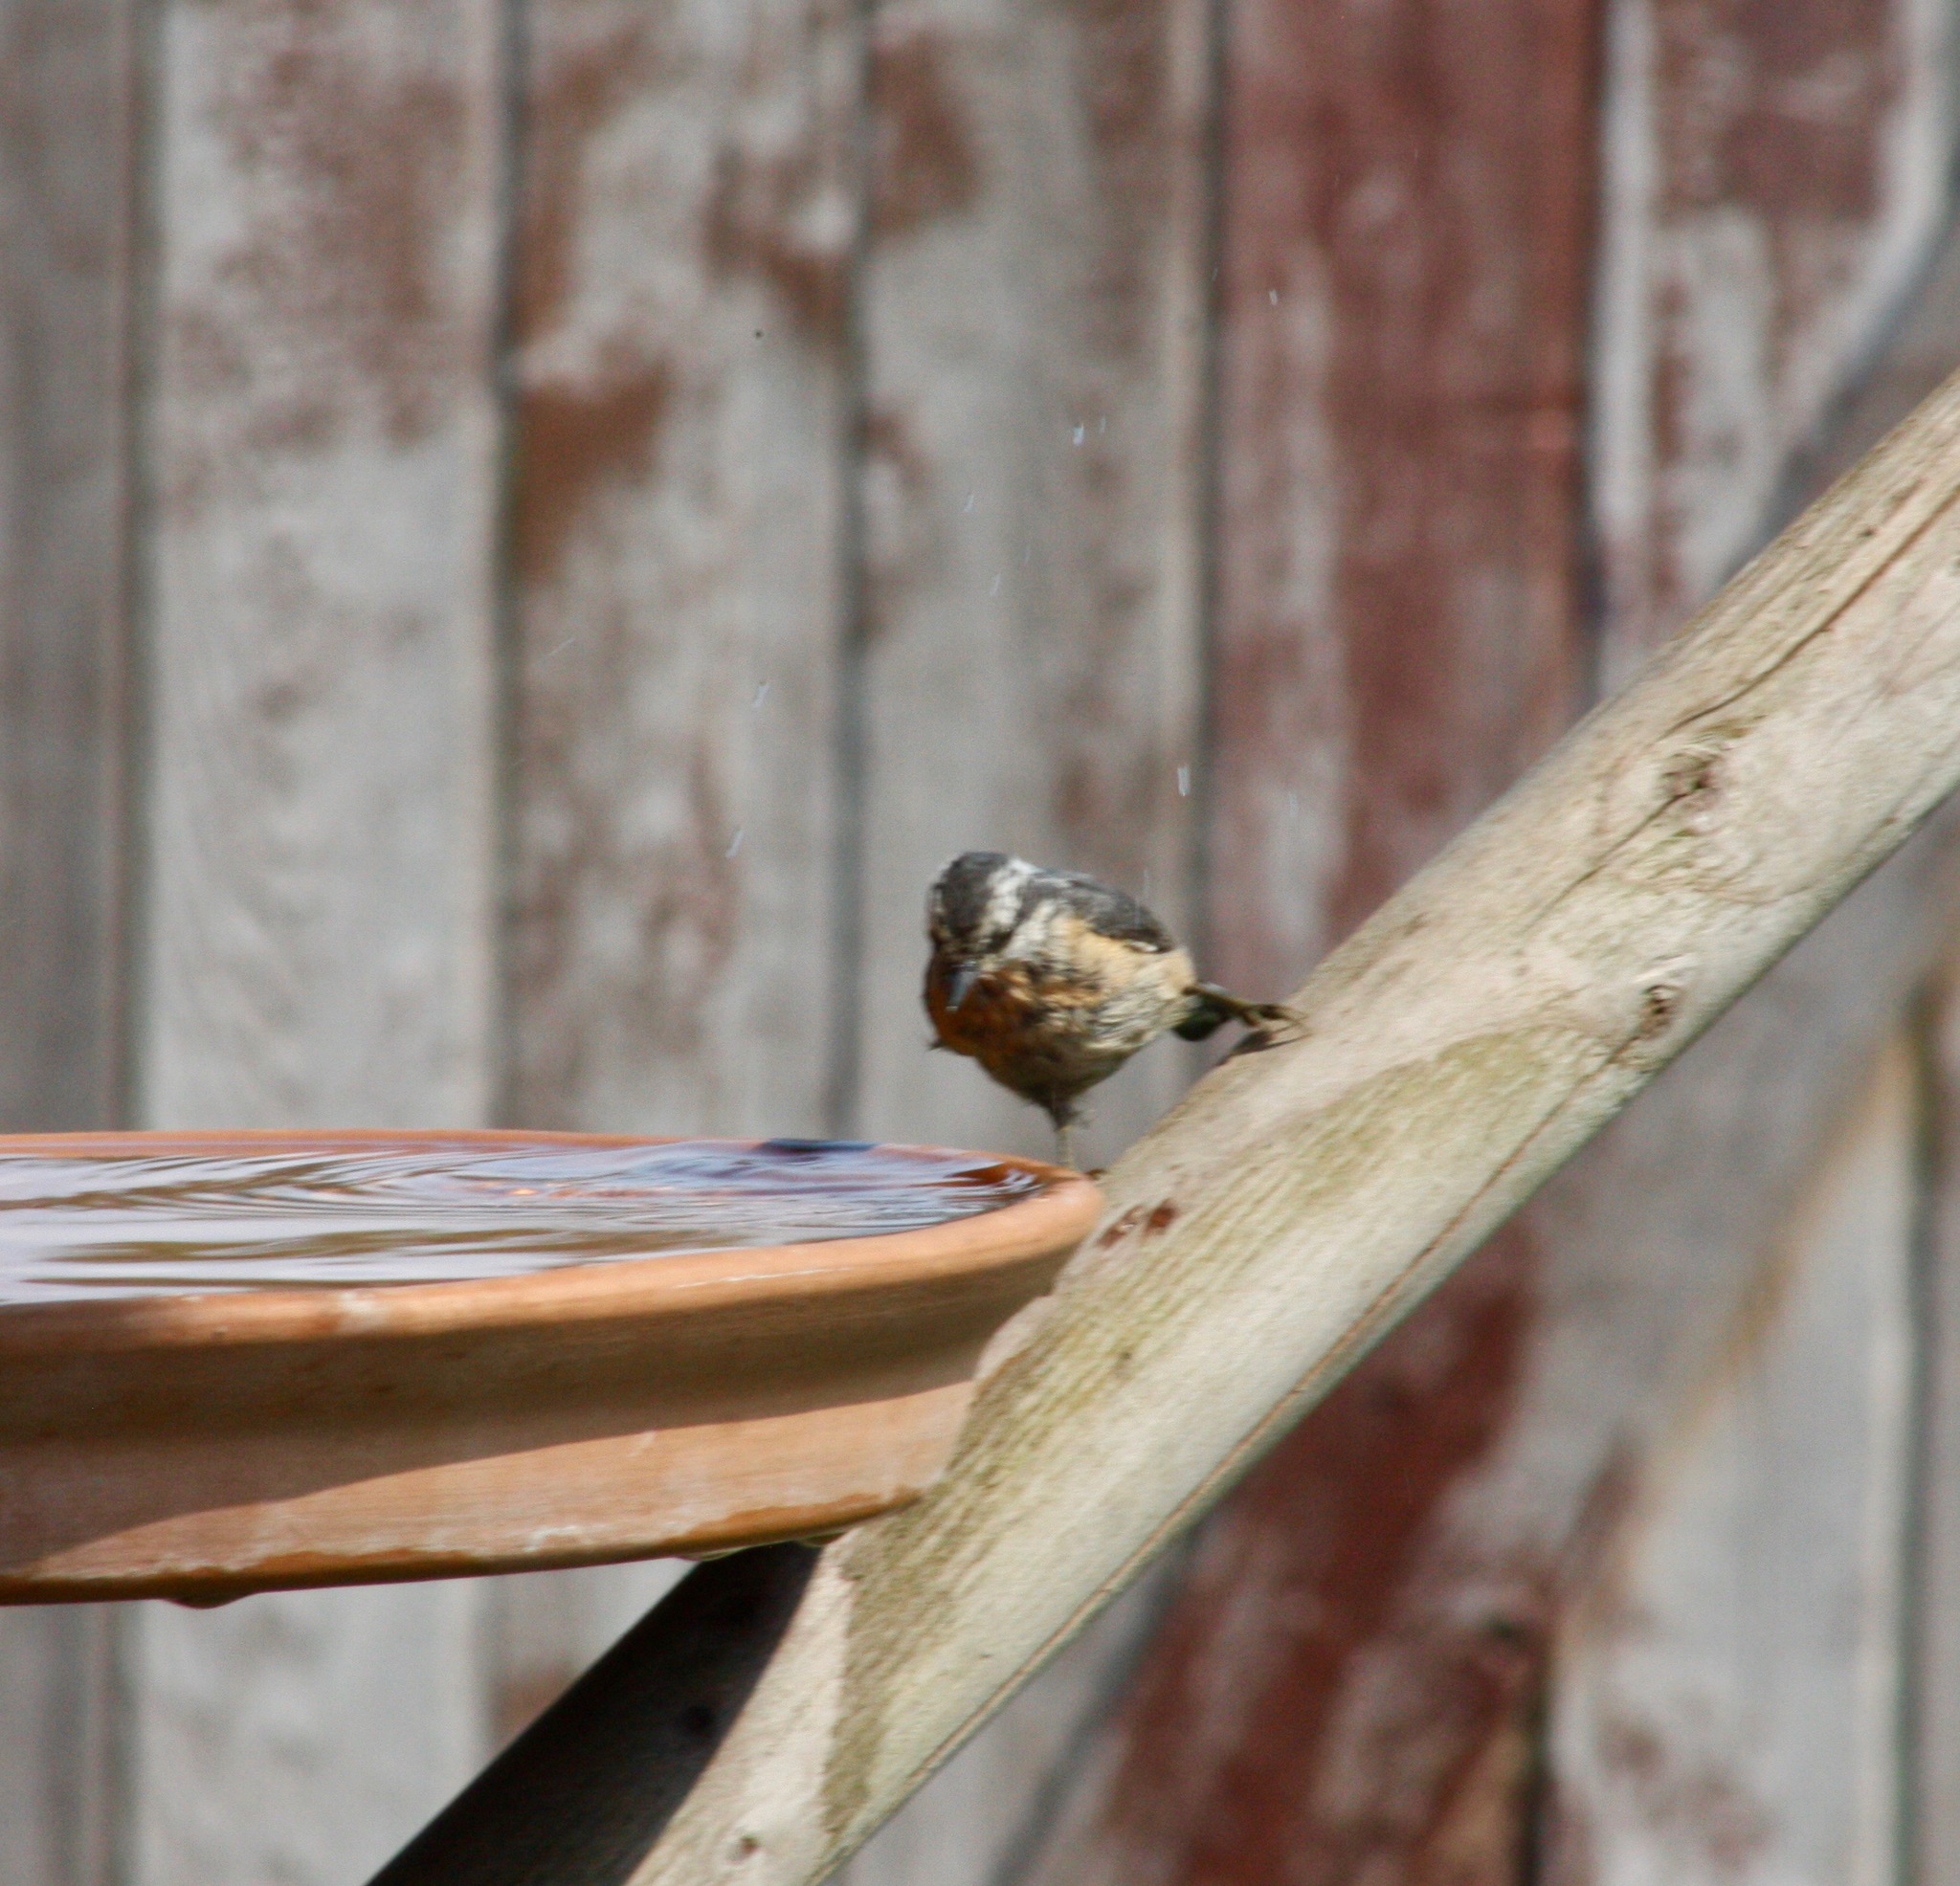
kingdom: Animalia
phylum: Chordata
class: Aves
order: Passeriformes
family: Sittidae
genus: Sitta
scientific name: Sitta canadensis
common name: Red-breasted nuthatch
